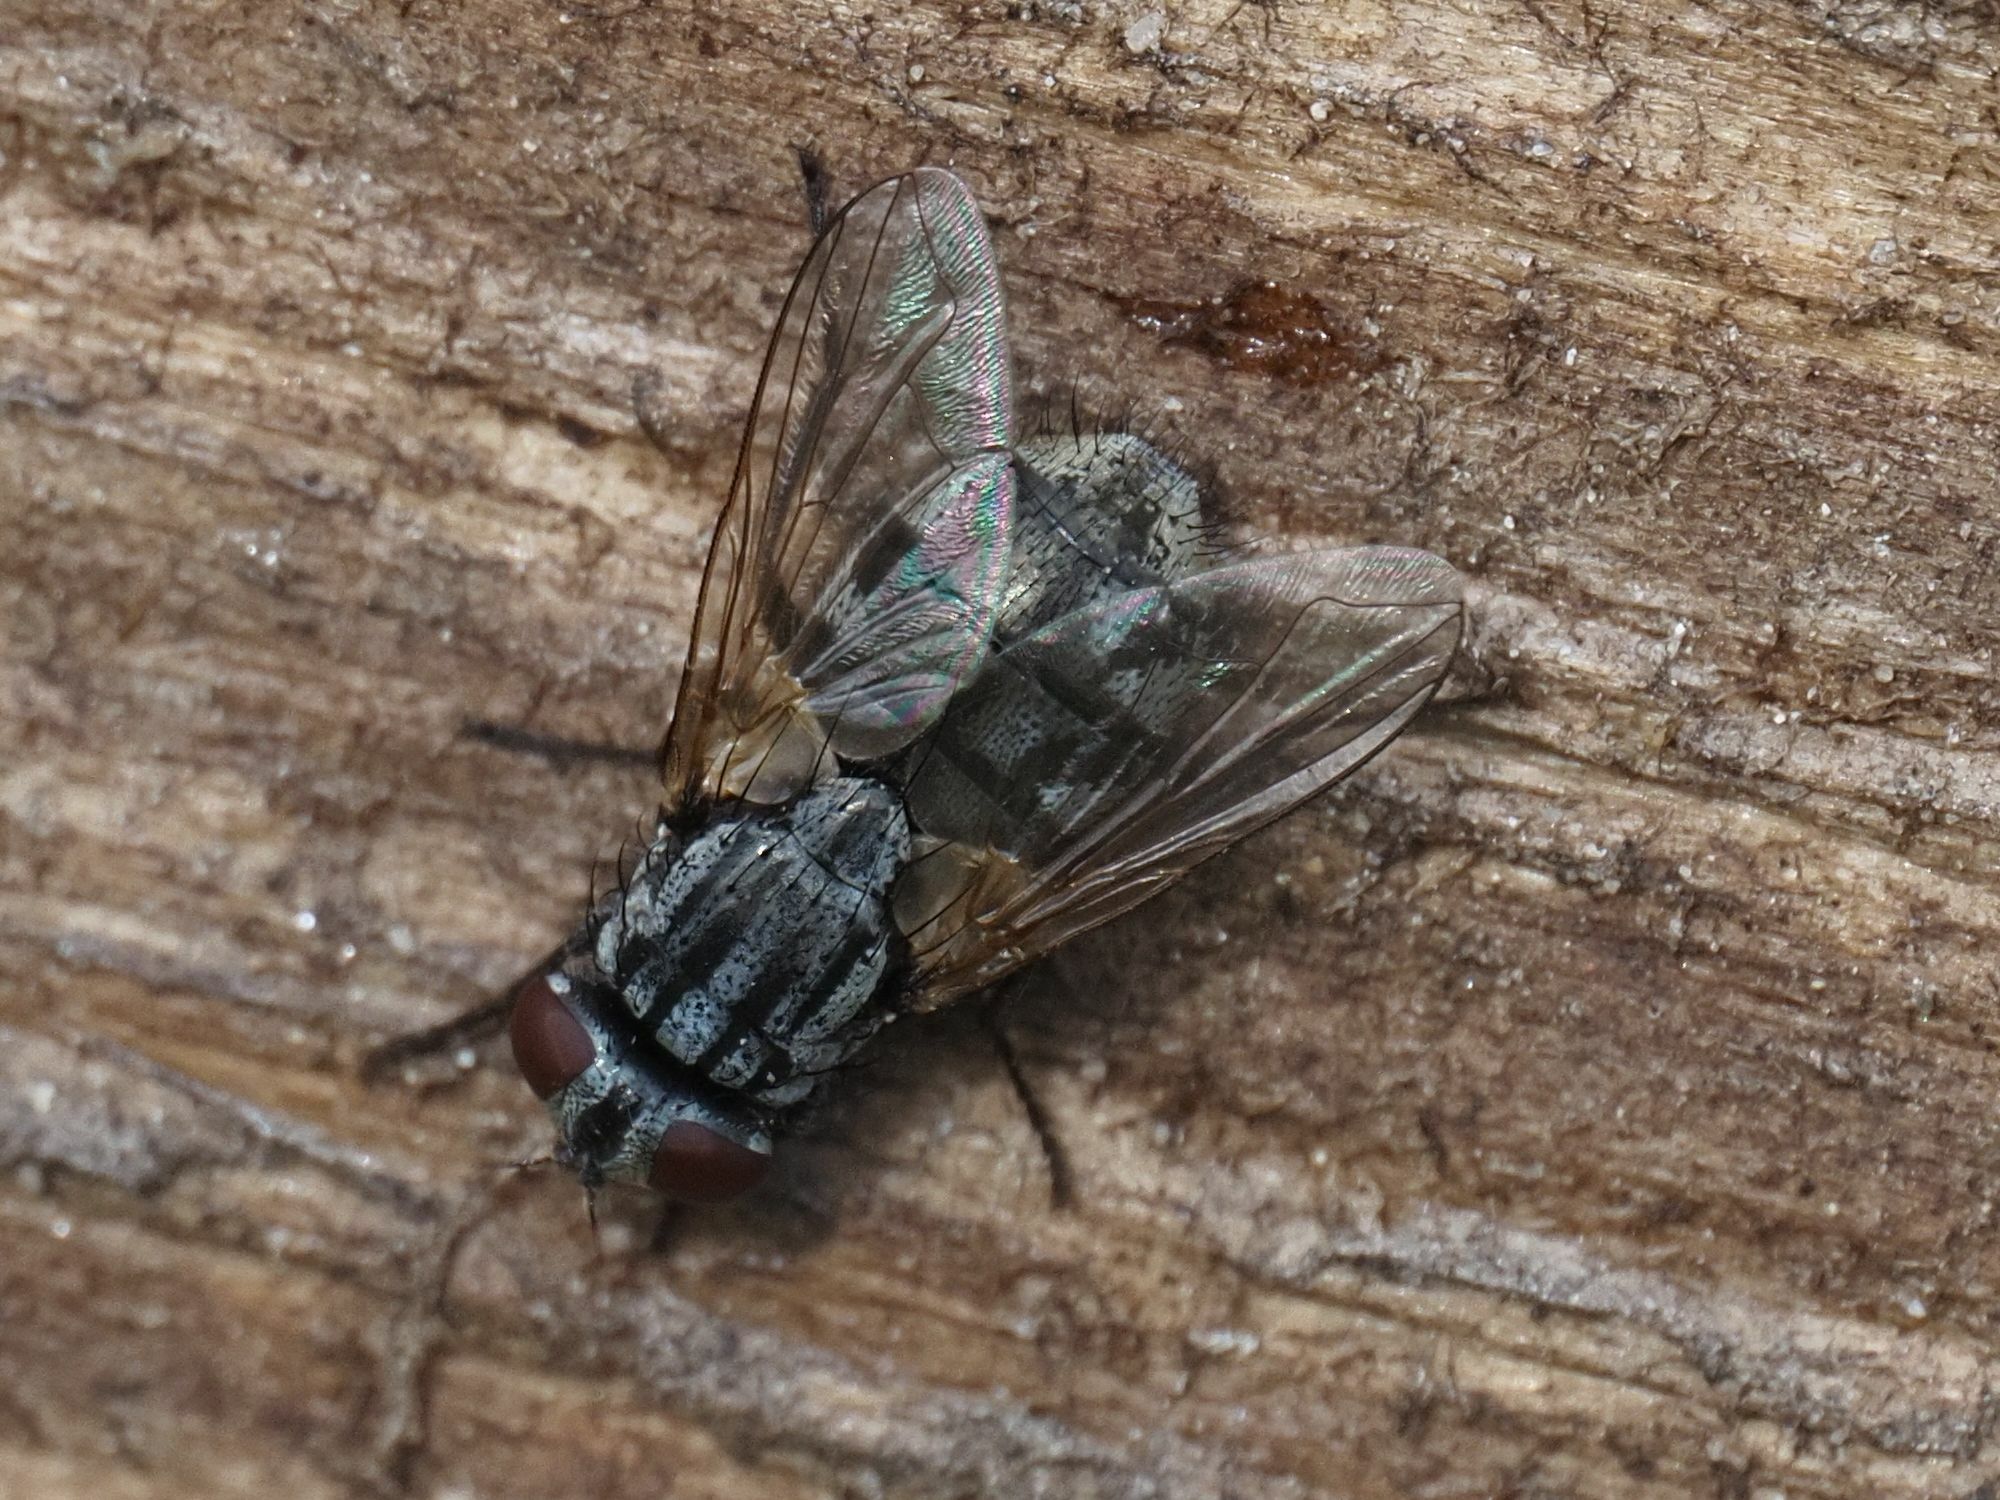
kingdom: Animalia
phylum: Arthropoda
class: Insecta
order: Diptera
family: Muscidae
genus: Musca
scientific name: Musca autumnalis
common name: Face fly
